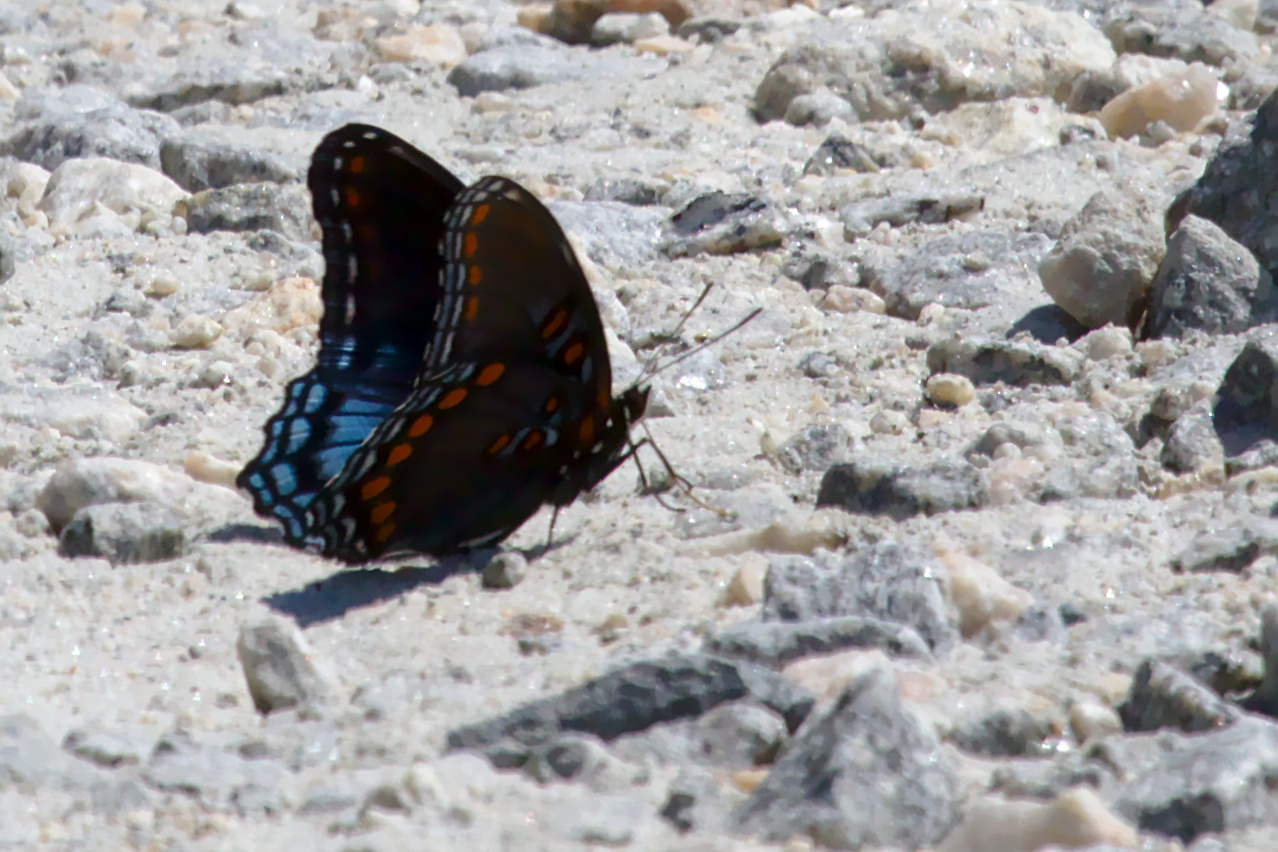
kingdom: Animalia
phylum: Arthropoda
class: Insecta
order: Lepidoptera
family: Nymphalidae
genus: Limenitis
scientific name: Limenitis astyanax
